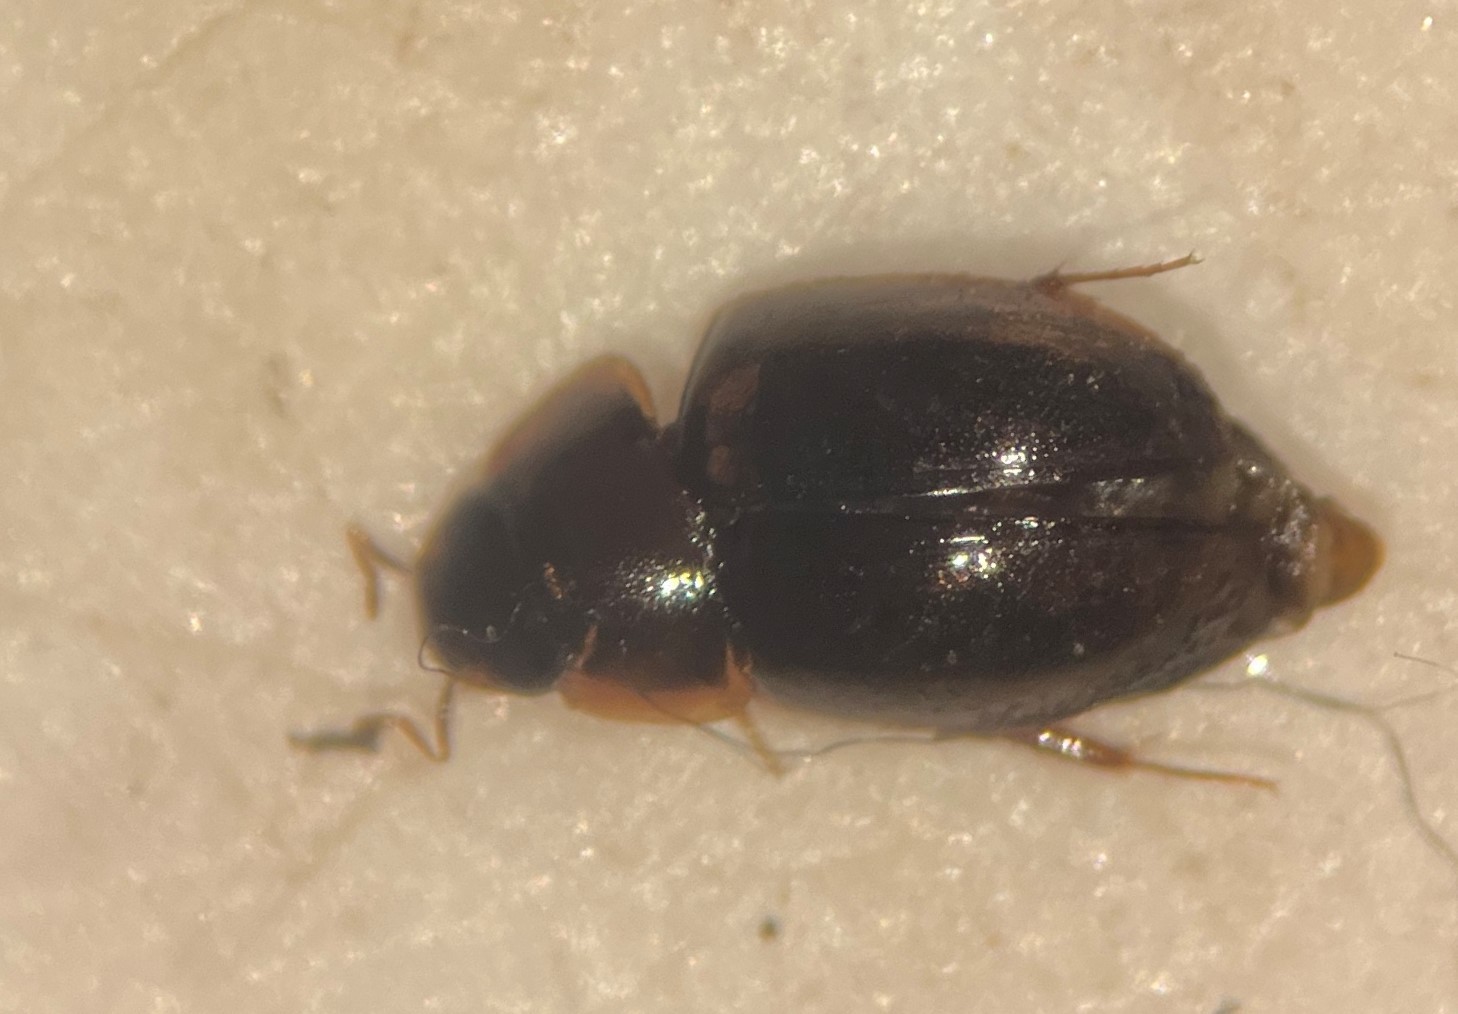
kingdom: Animalia
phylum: Arthropoda
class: Insecta
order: Coleoptera
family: Hydrophilidae
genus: Enochrus
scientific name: Enochrus ochraceus
